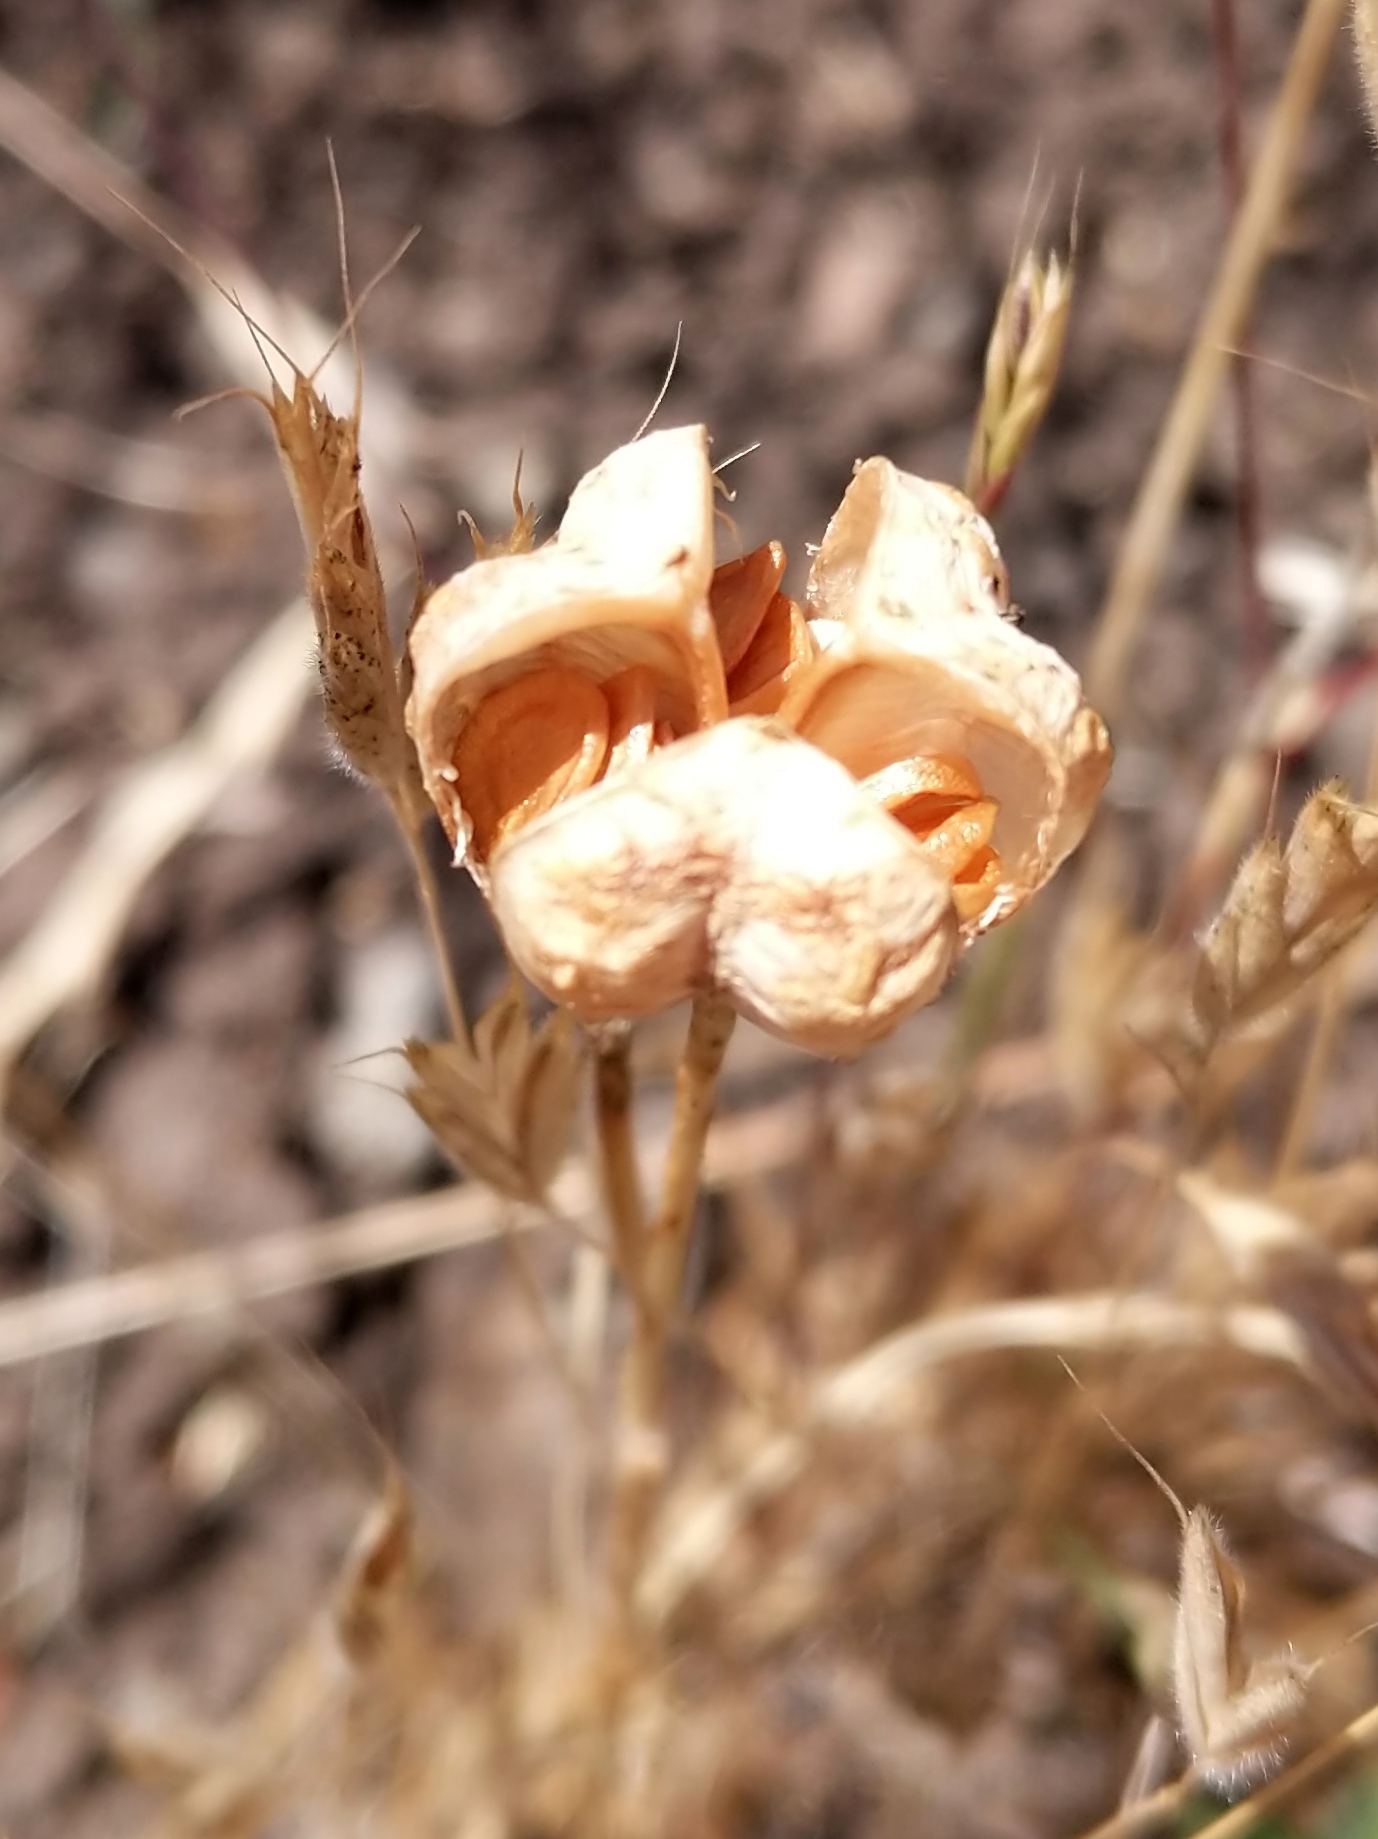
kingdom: Plantae
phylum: Tracheophyta
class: Liliopsida
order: Liliales
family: Liliaceae
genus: Fritillaria
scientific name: Fritillaria liliacea
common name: Fragrant fritillary
